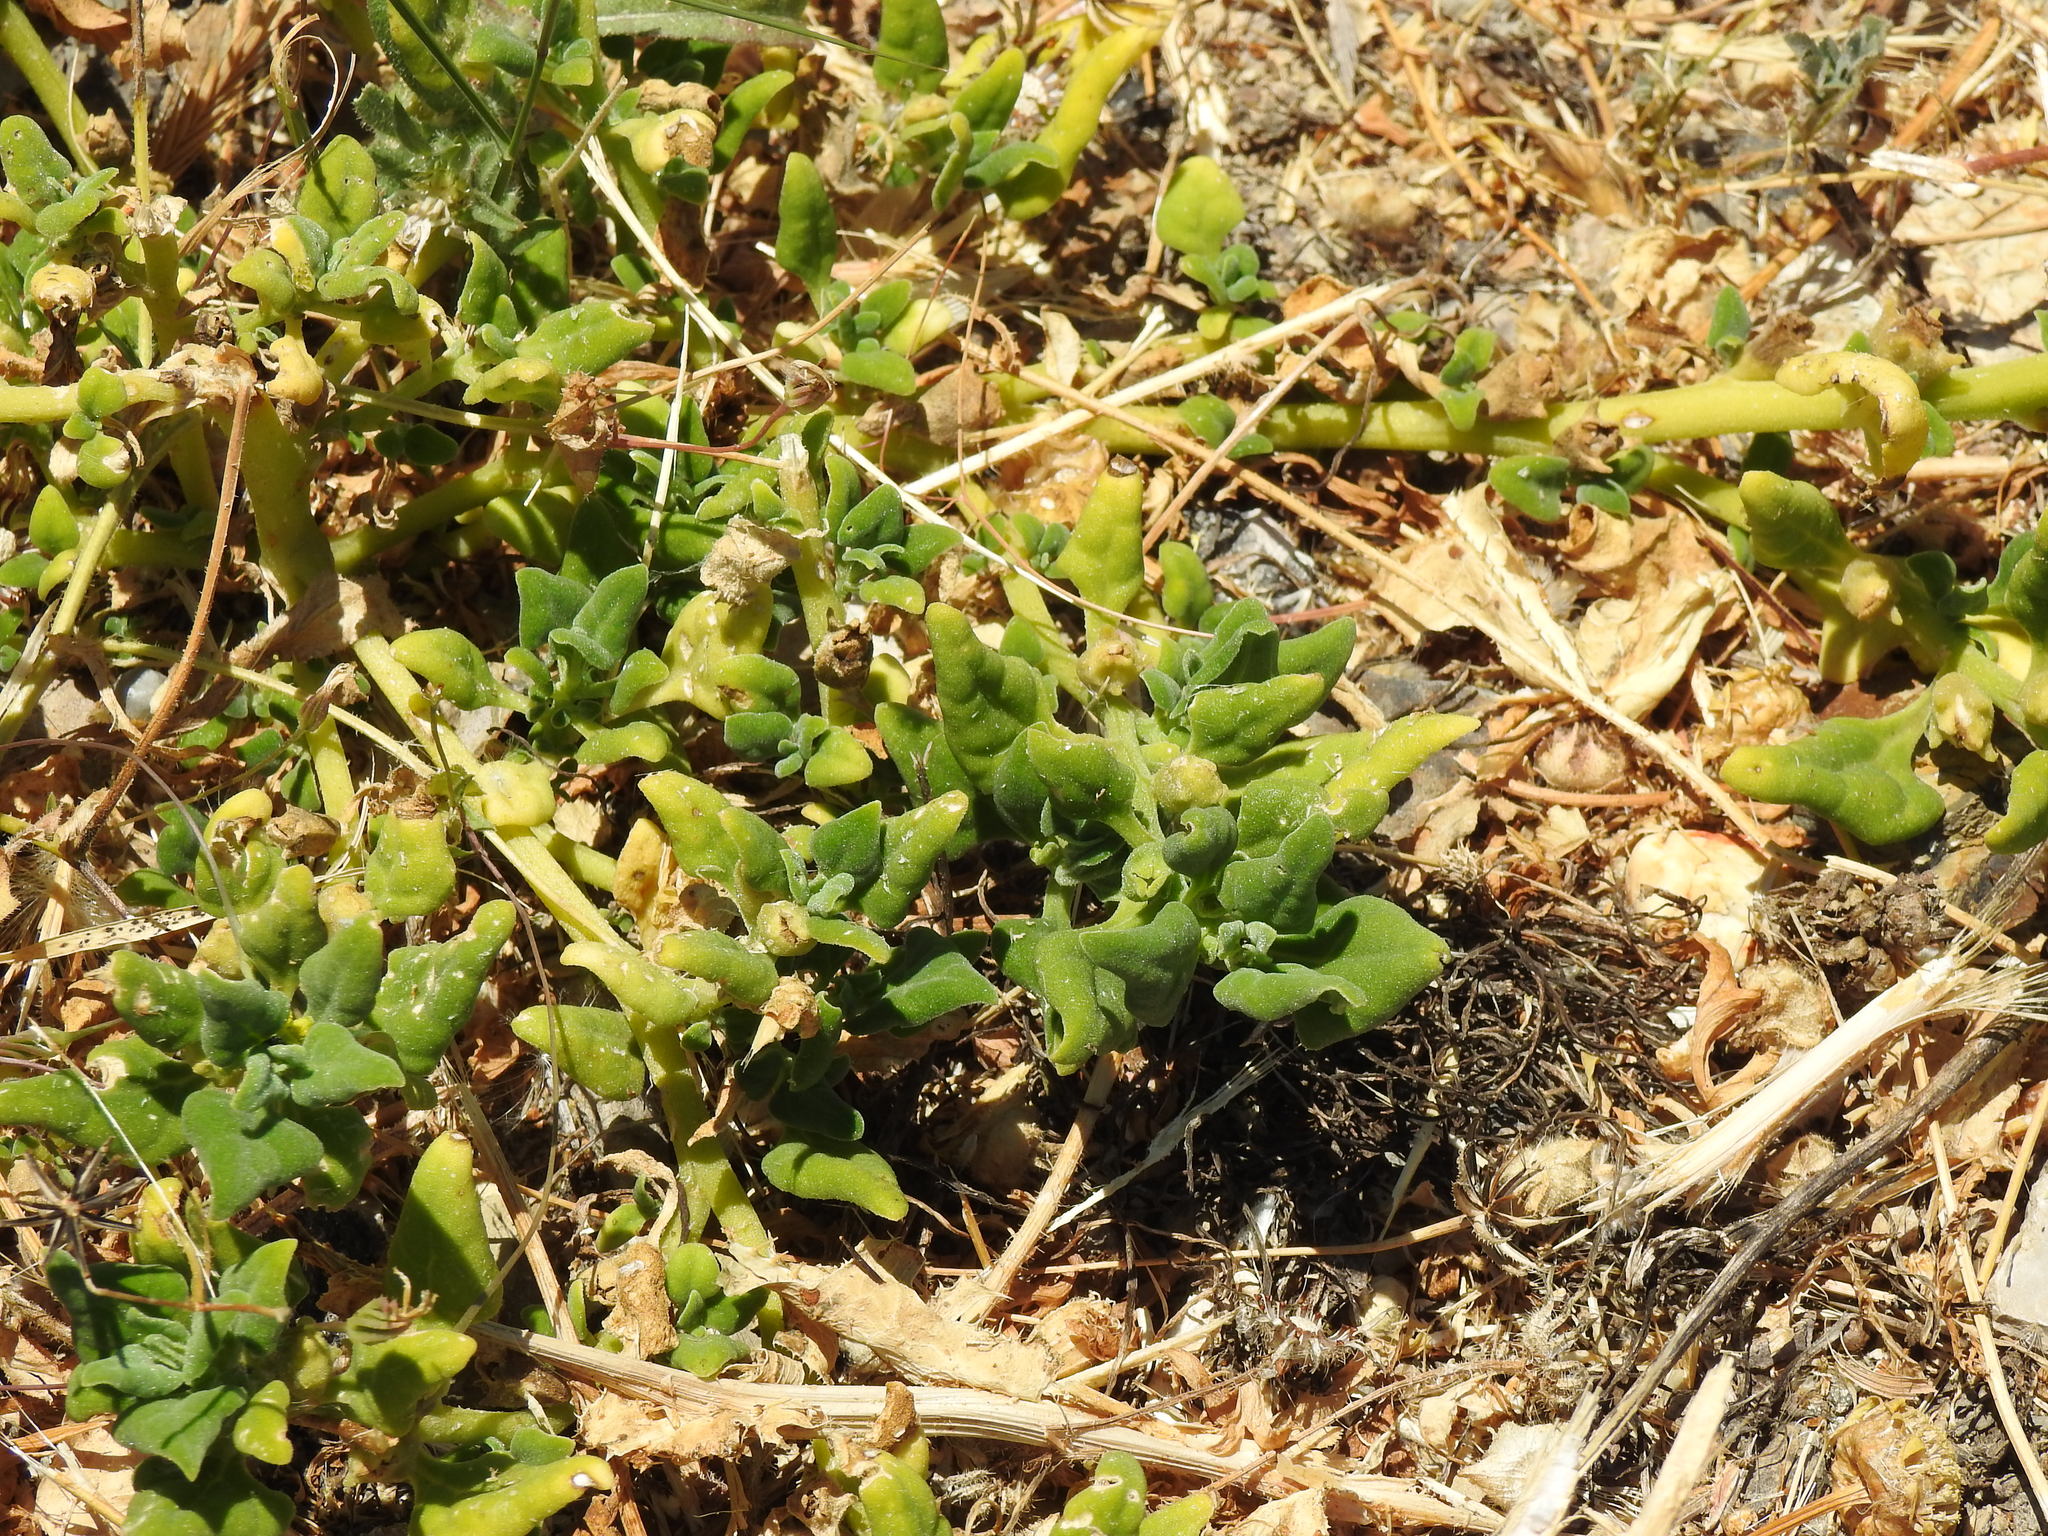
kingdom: Plantae
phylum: Tracheophyta
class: Magnoliopsida
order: Caryophyllales
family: Aizoaceae
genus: Tetragonia
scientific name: Tetragonia tetragonoides
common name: New zealand-spinach
